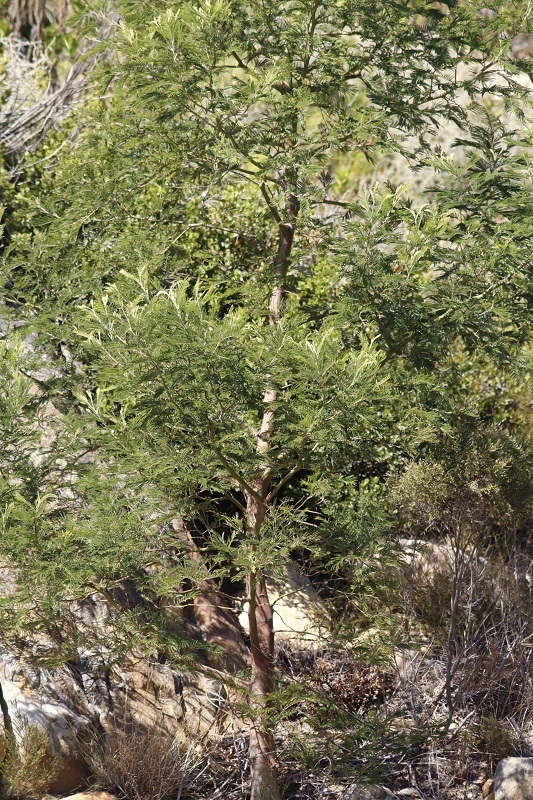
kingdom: Plantae
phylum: Tracheophyta
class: Magnoliopsida
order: Fabales
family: Fabaceae
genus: Acacia
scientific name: Acacia mearnsii
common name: Black wattle
